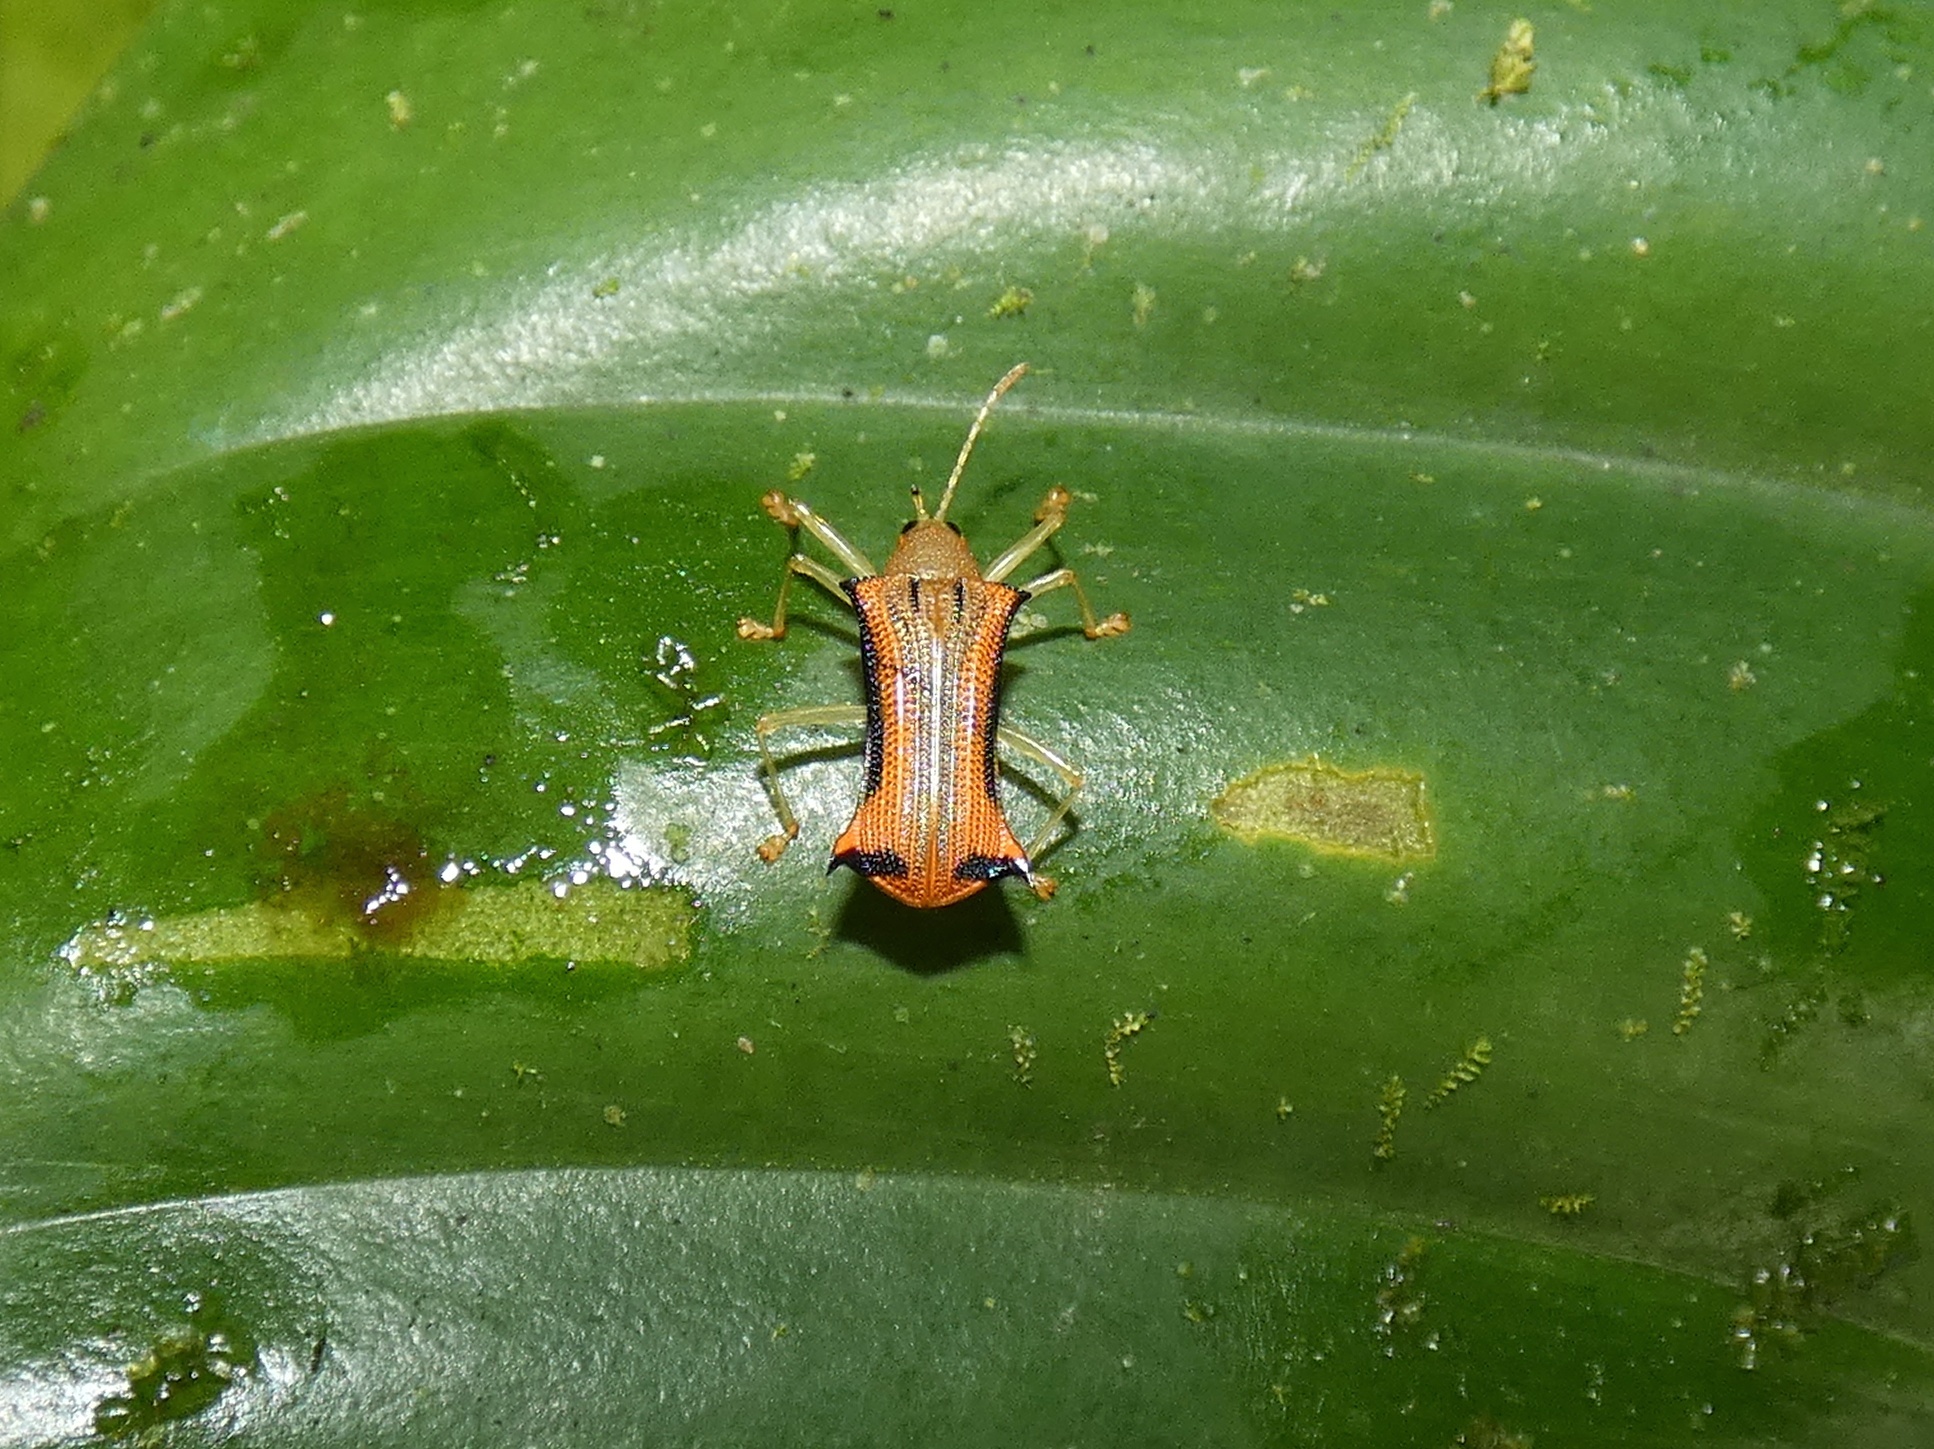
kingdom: Animalia
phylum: Arthropoda
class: Insecta
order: Coleoptera
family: Chrysomelidae
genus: Sceloenopla
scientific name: Sceloenopla apicispina
